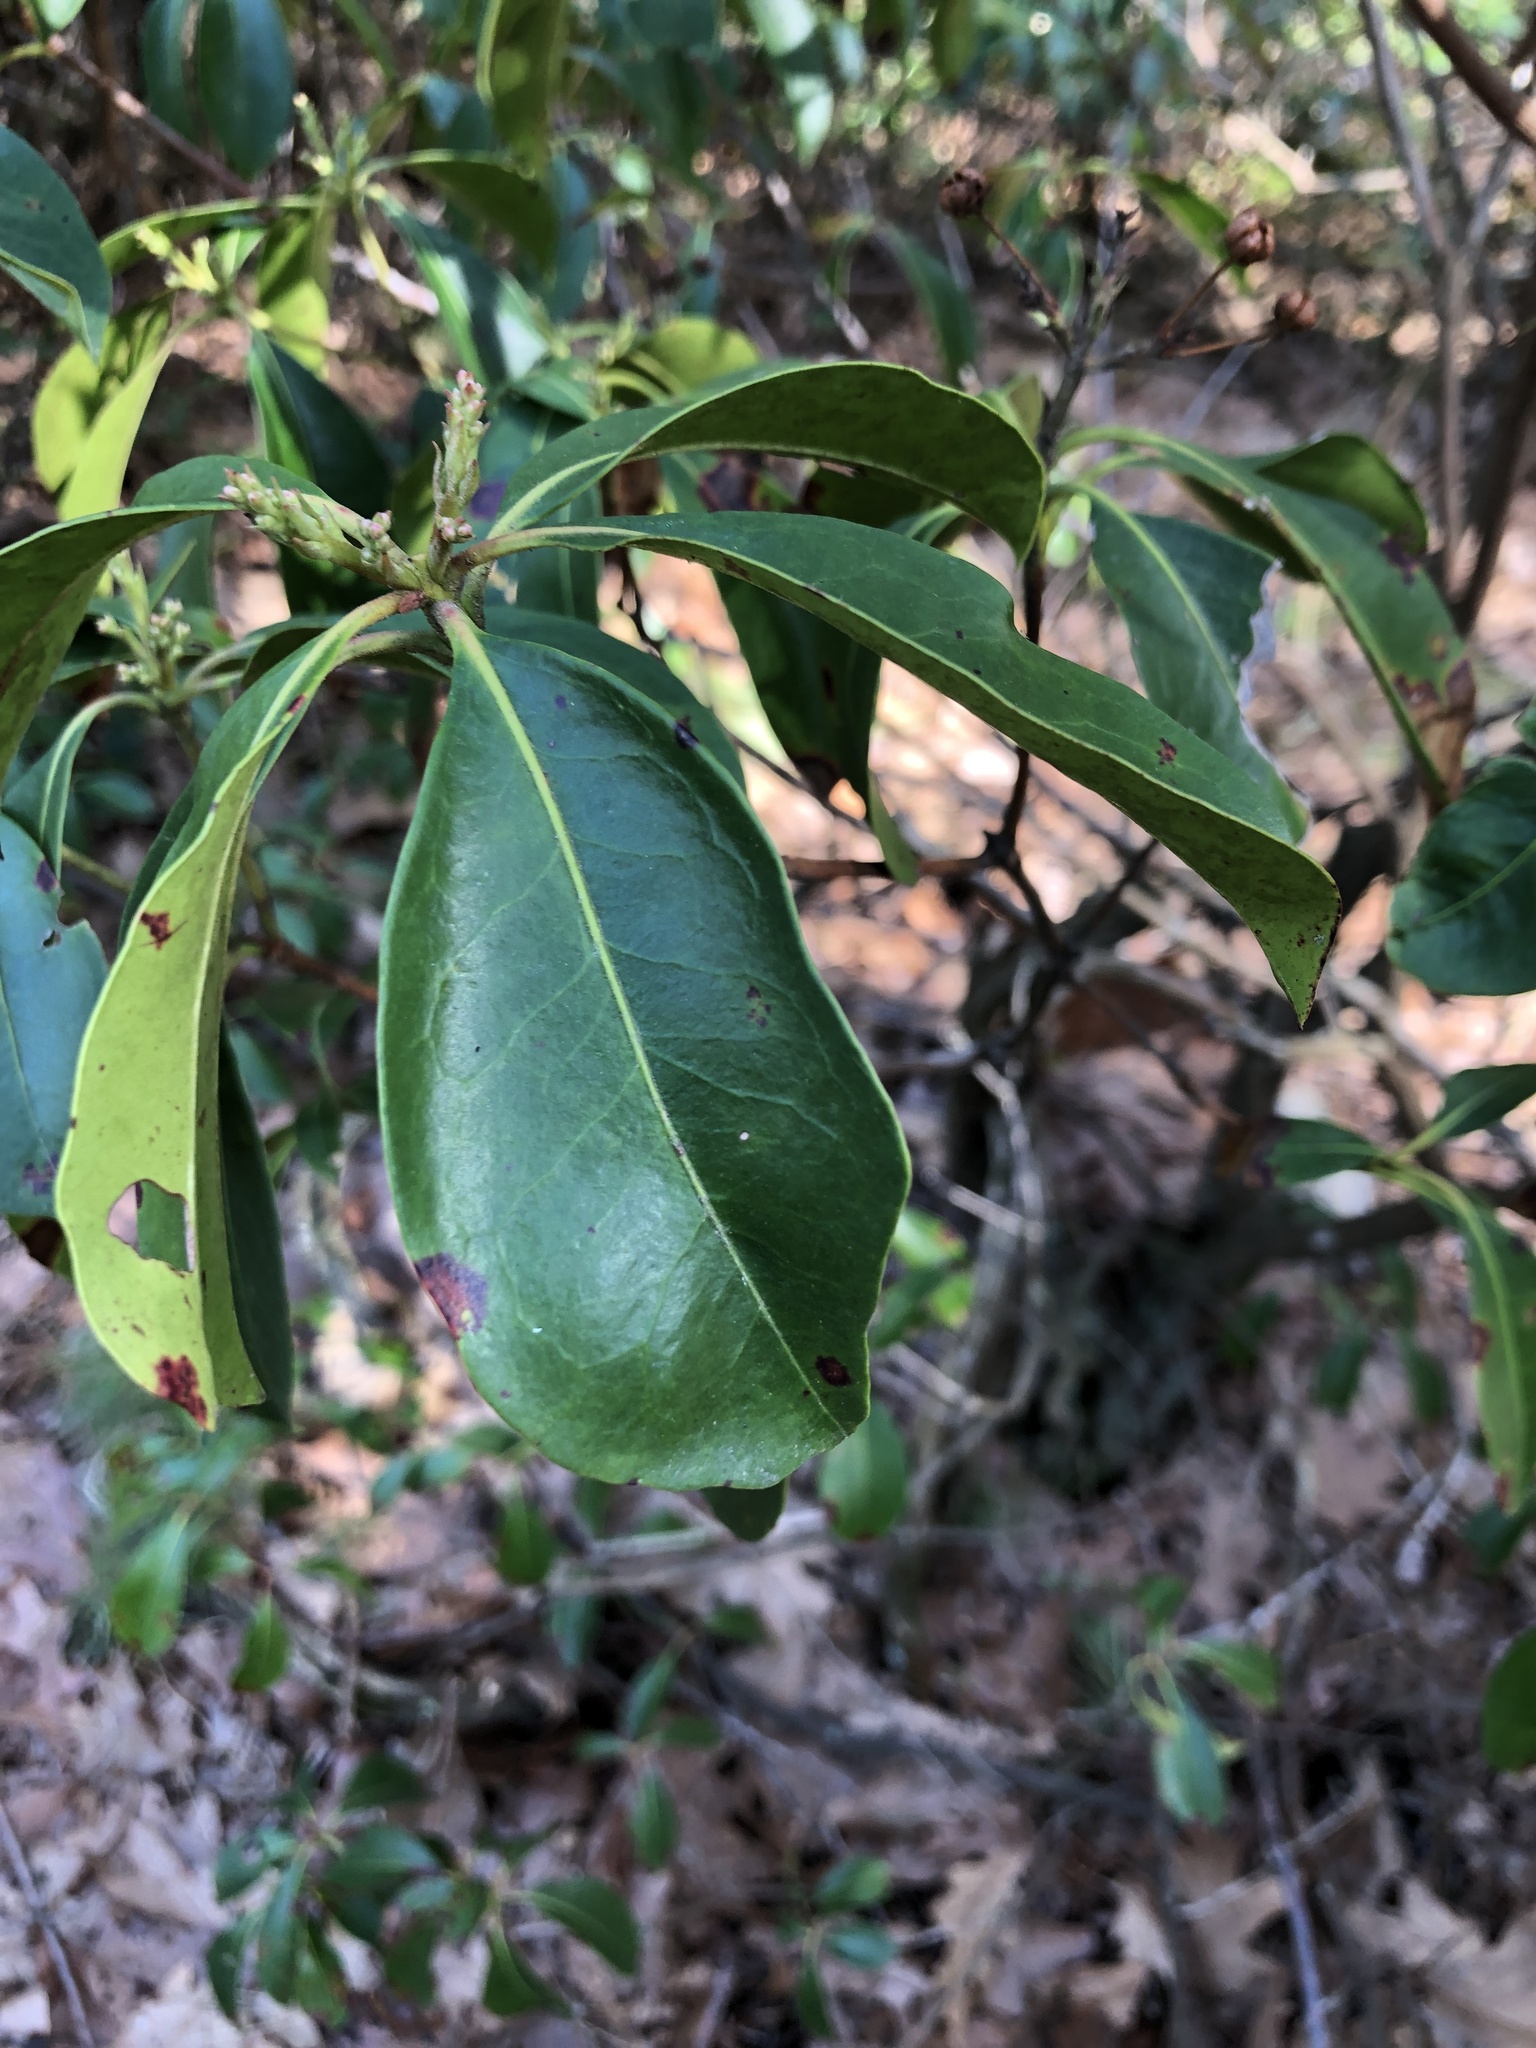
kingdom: Plantae
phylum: Tracheophyta
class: Magnoliopsida
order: Ericales
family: Ericaceae
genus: Kalmia
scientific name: Kalmia latifolia
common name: Mountain-laurel
